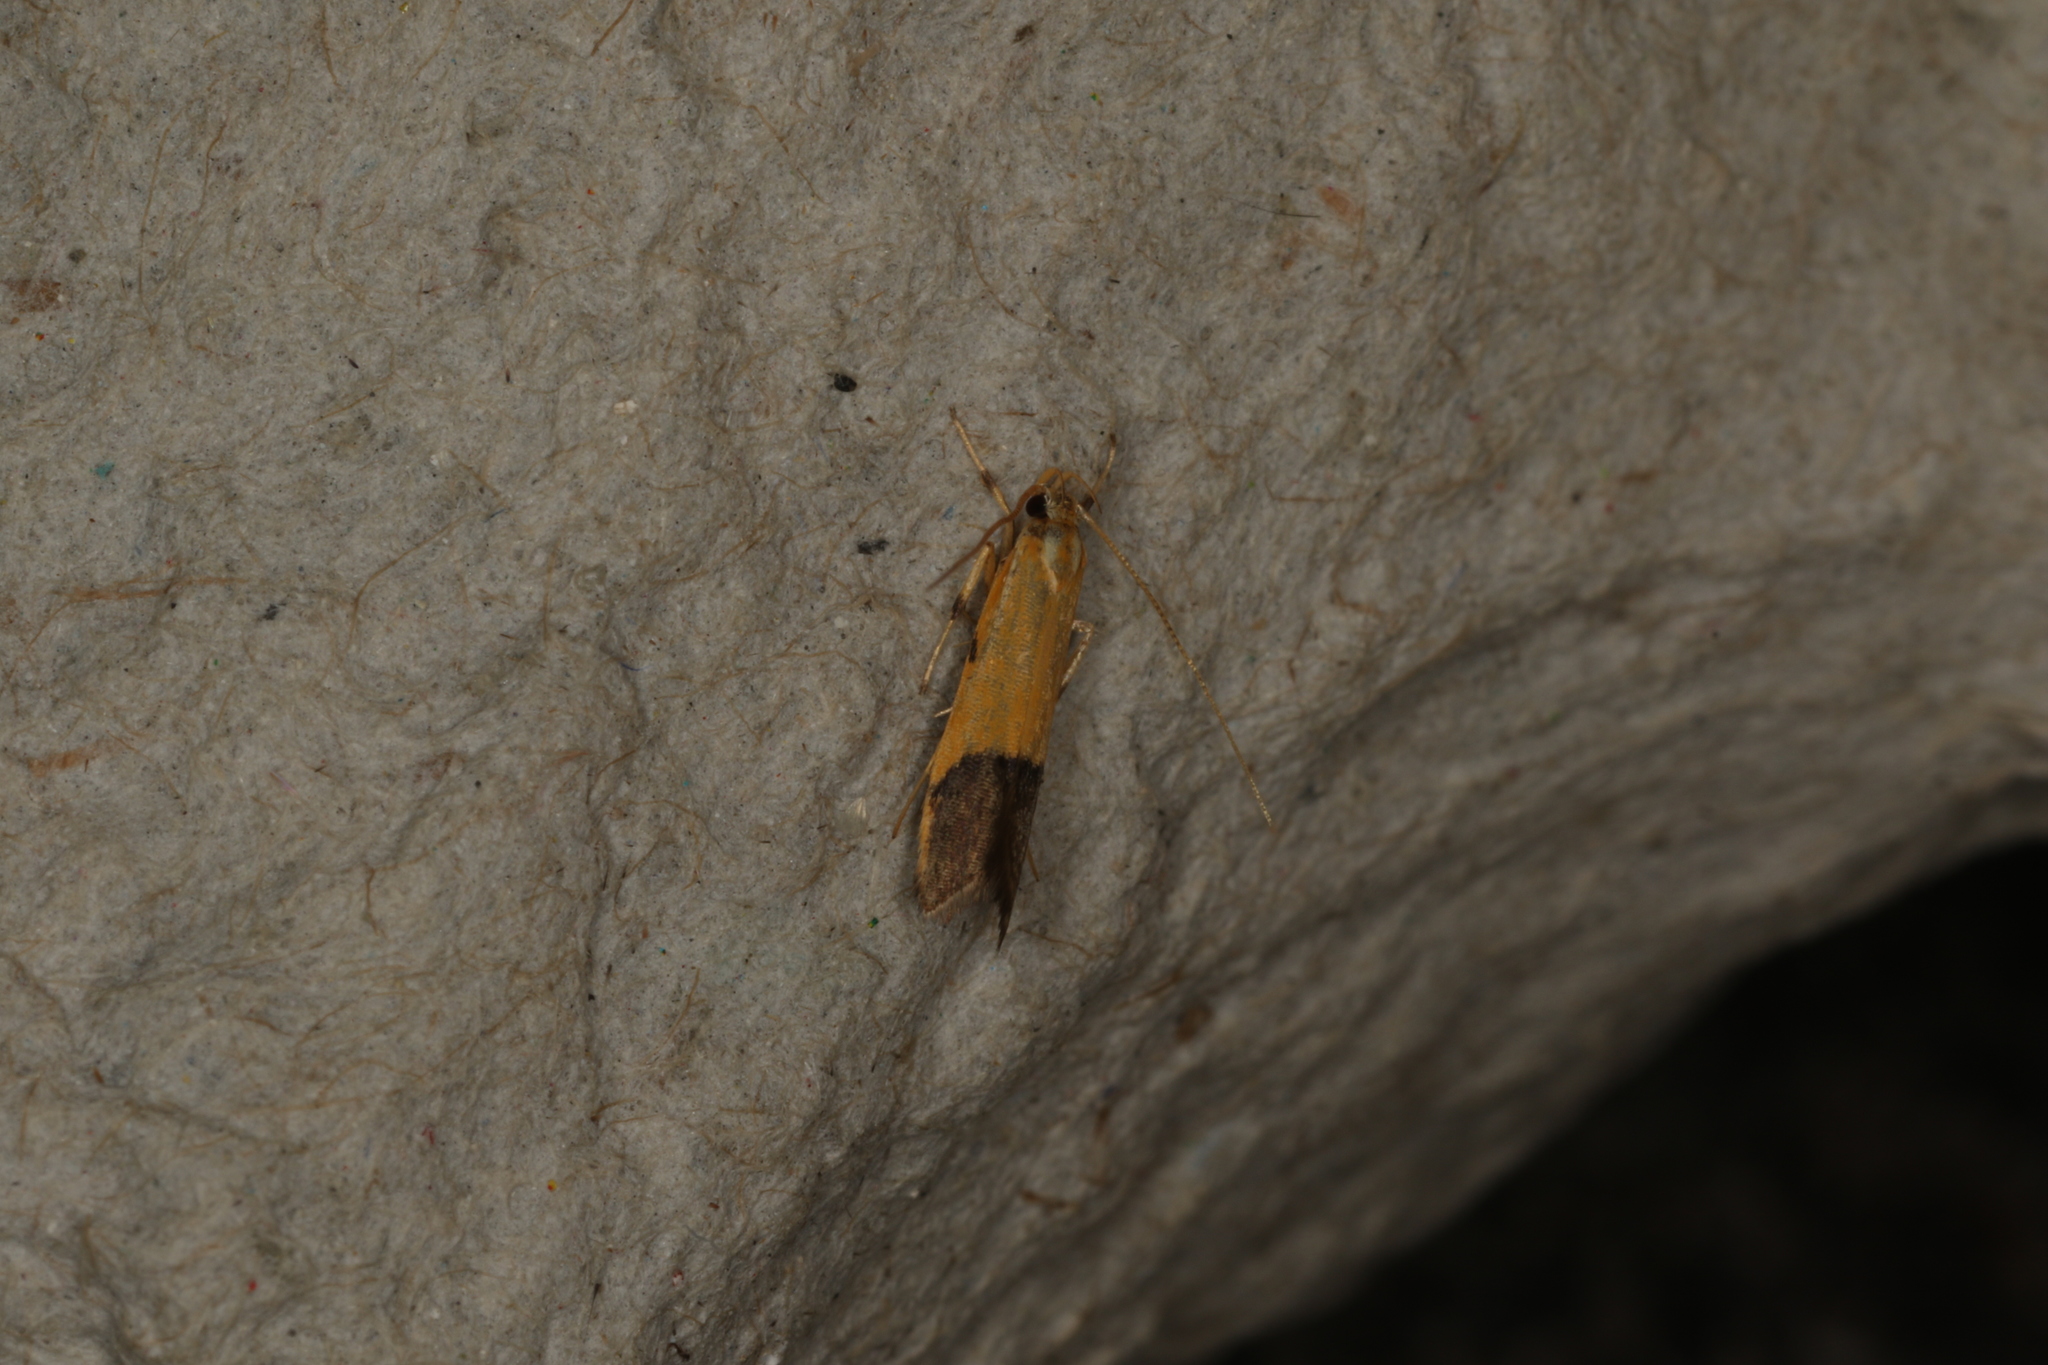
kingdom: Animalia
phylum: Arthropoda
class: Insecta
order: Lepidoptera
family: Lecithoceridae
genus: Crocanthes
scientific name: Crocanthes micradelpha
